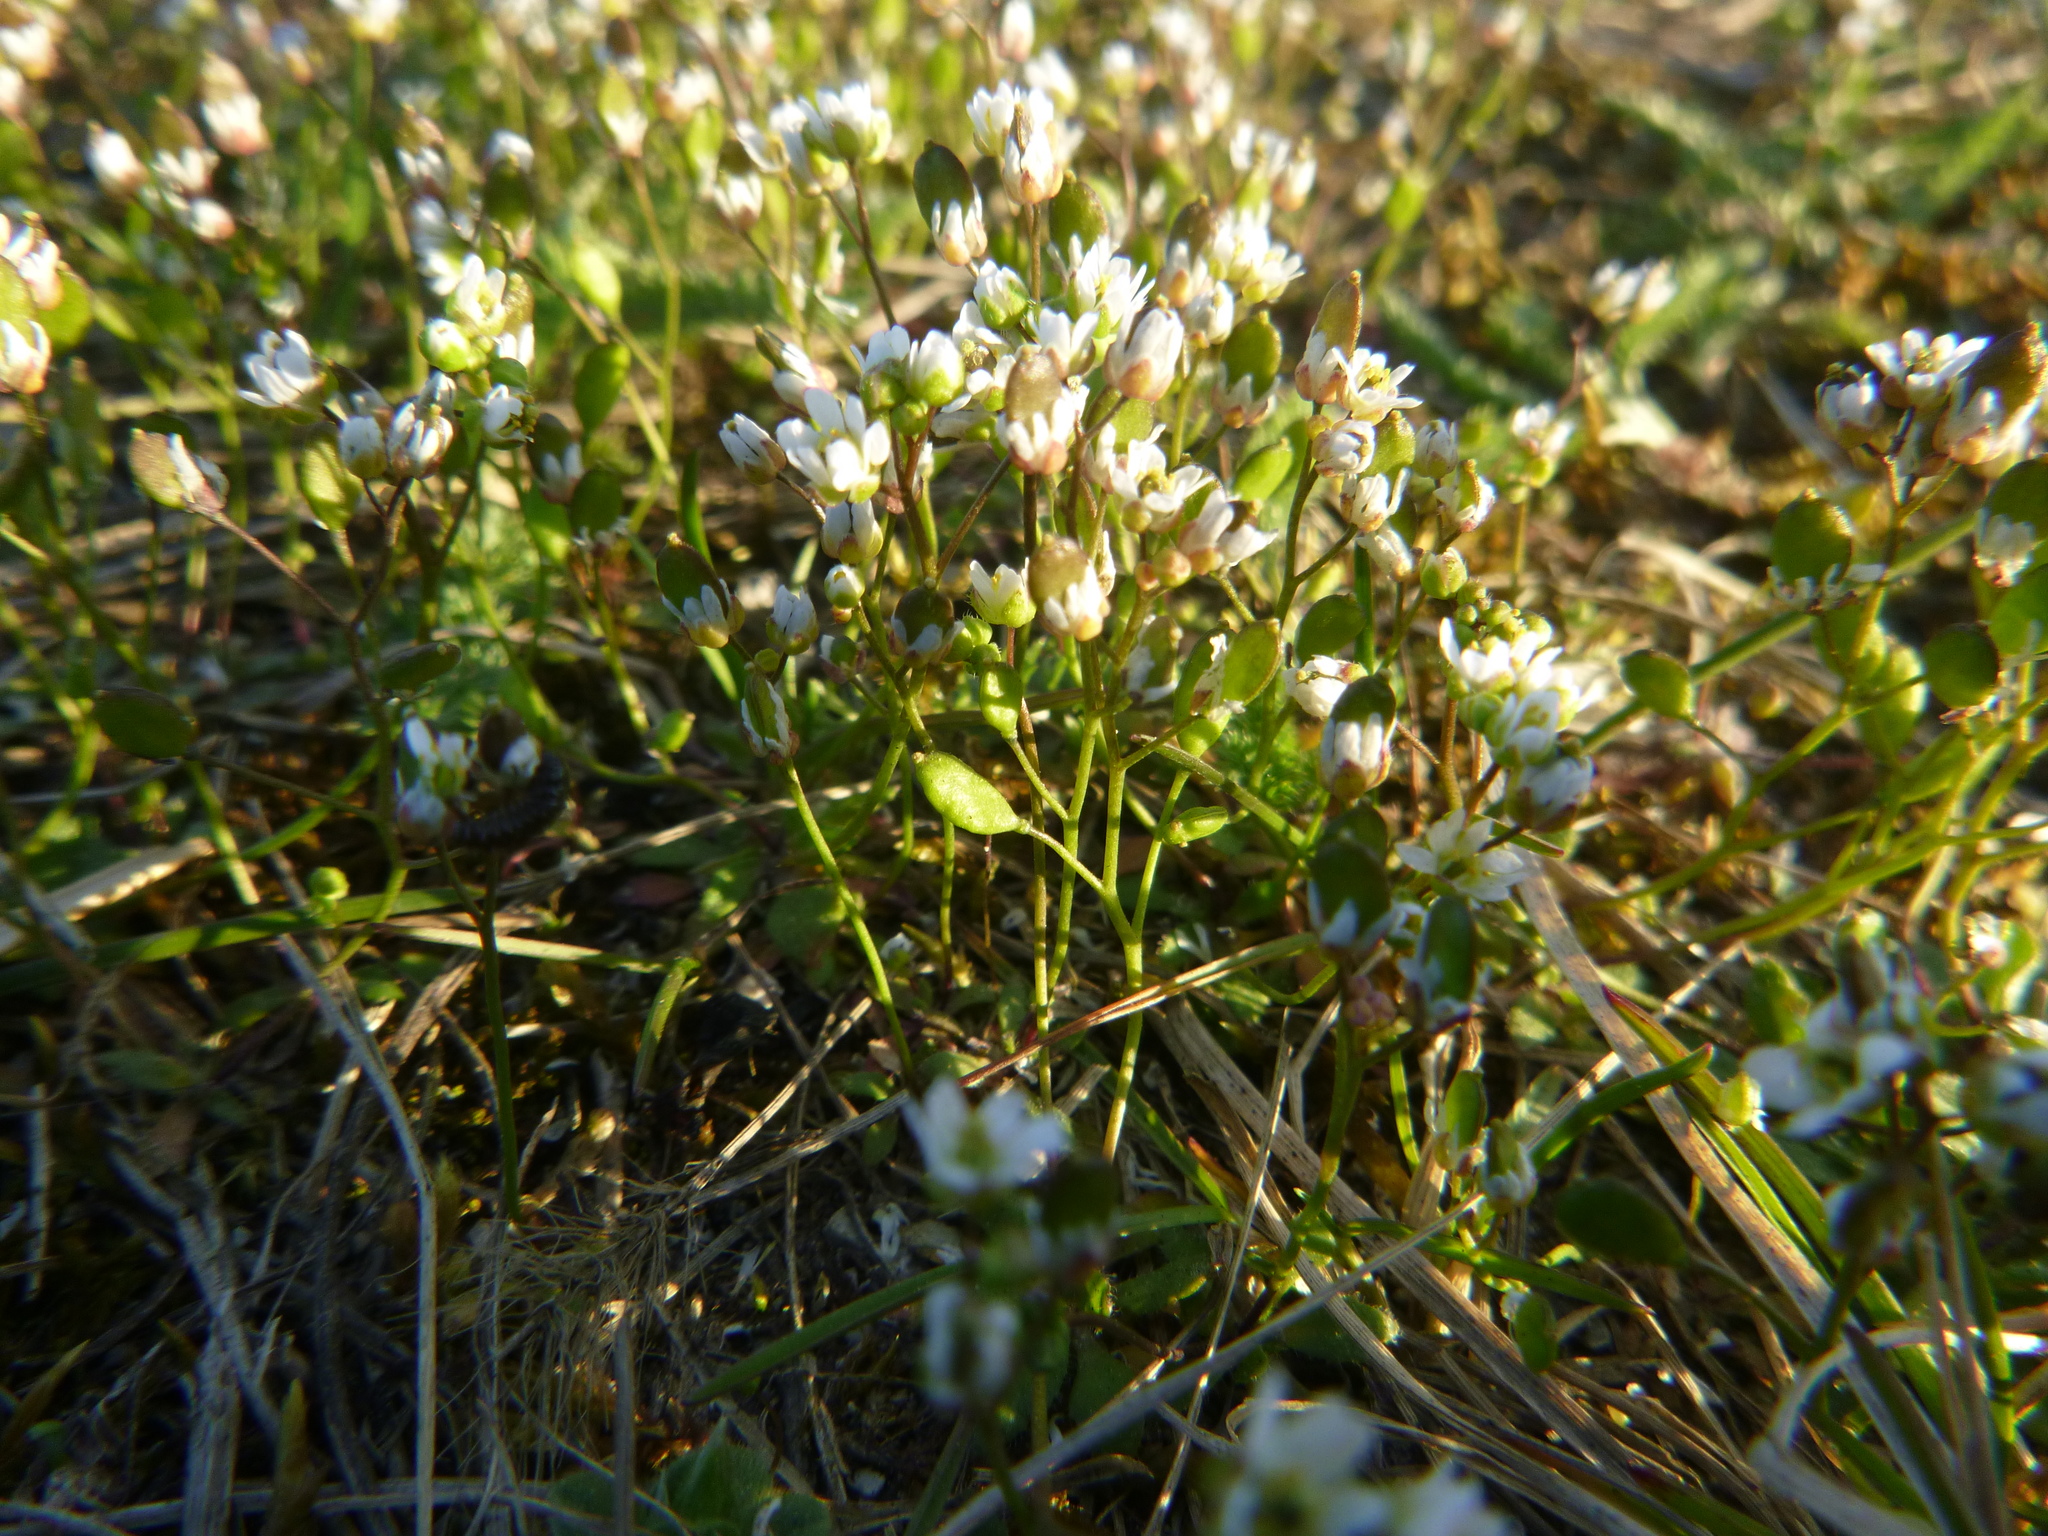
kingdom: Plantae
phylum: Tracheophyta
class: Magnoliopsida
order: Brassicales
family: Brassicaceae
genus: Draba
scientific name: Draba verna
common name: Spring draba
